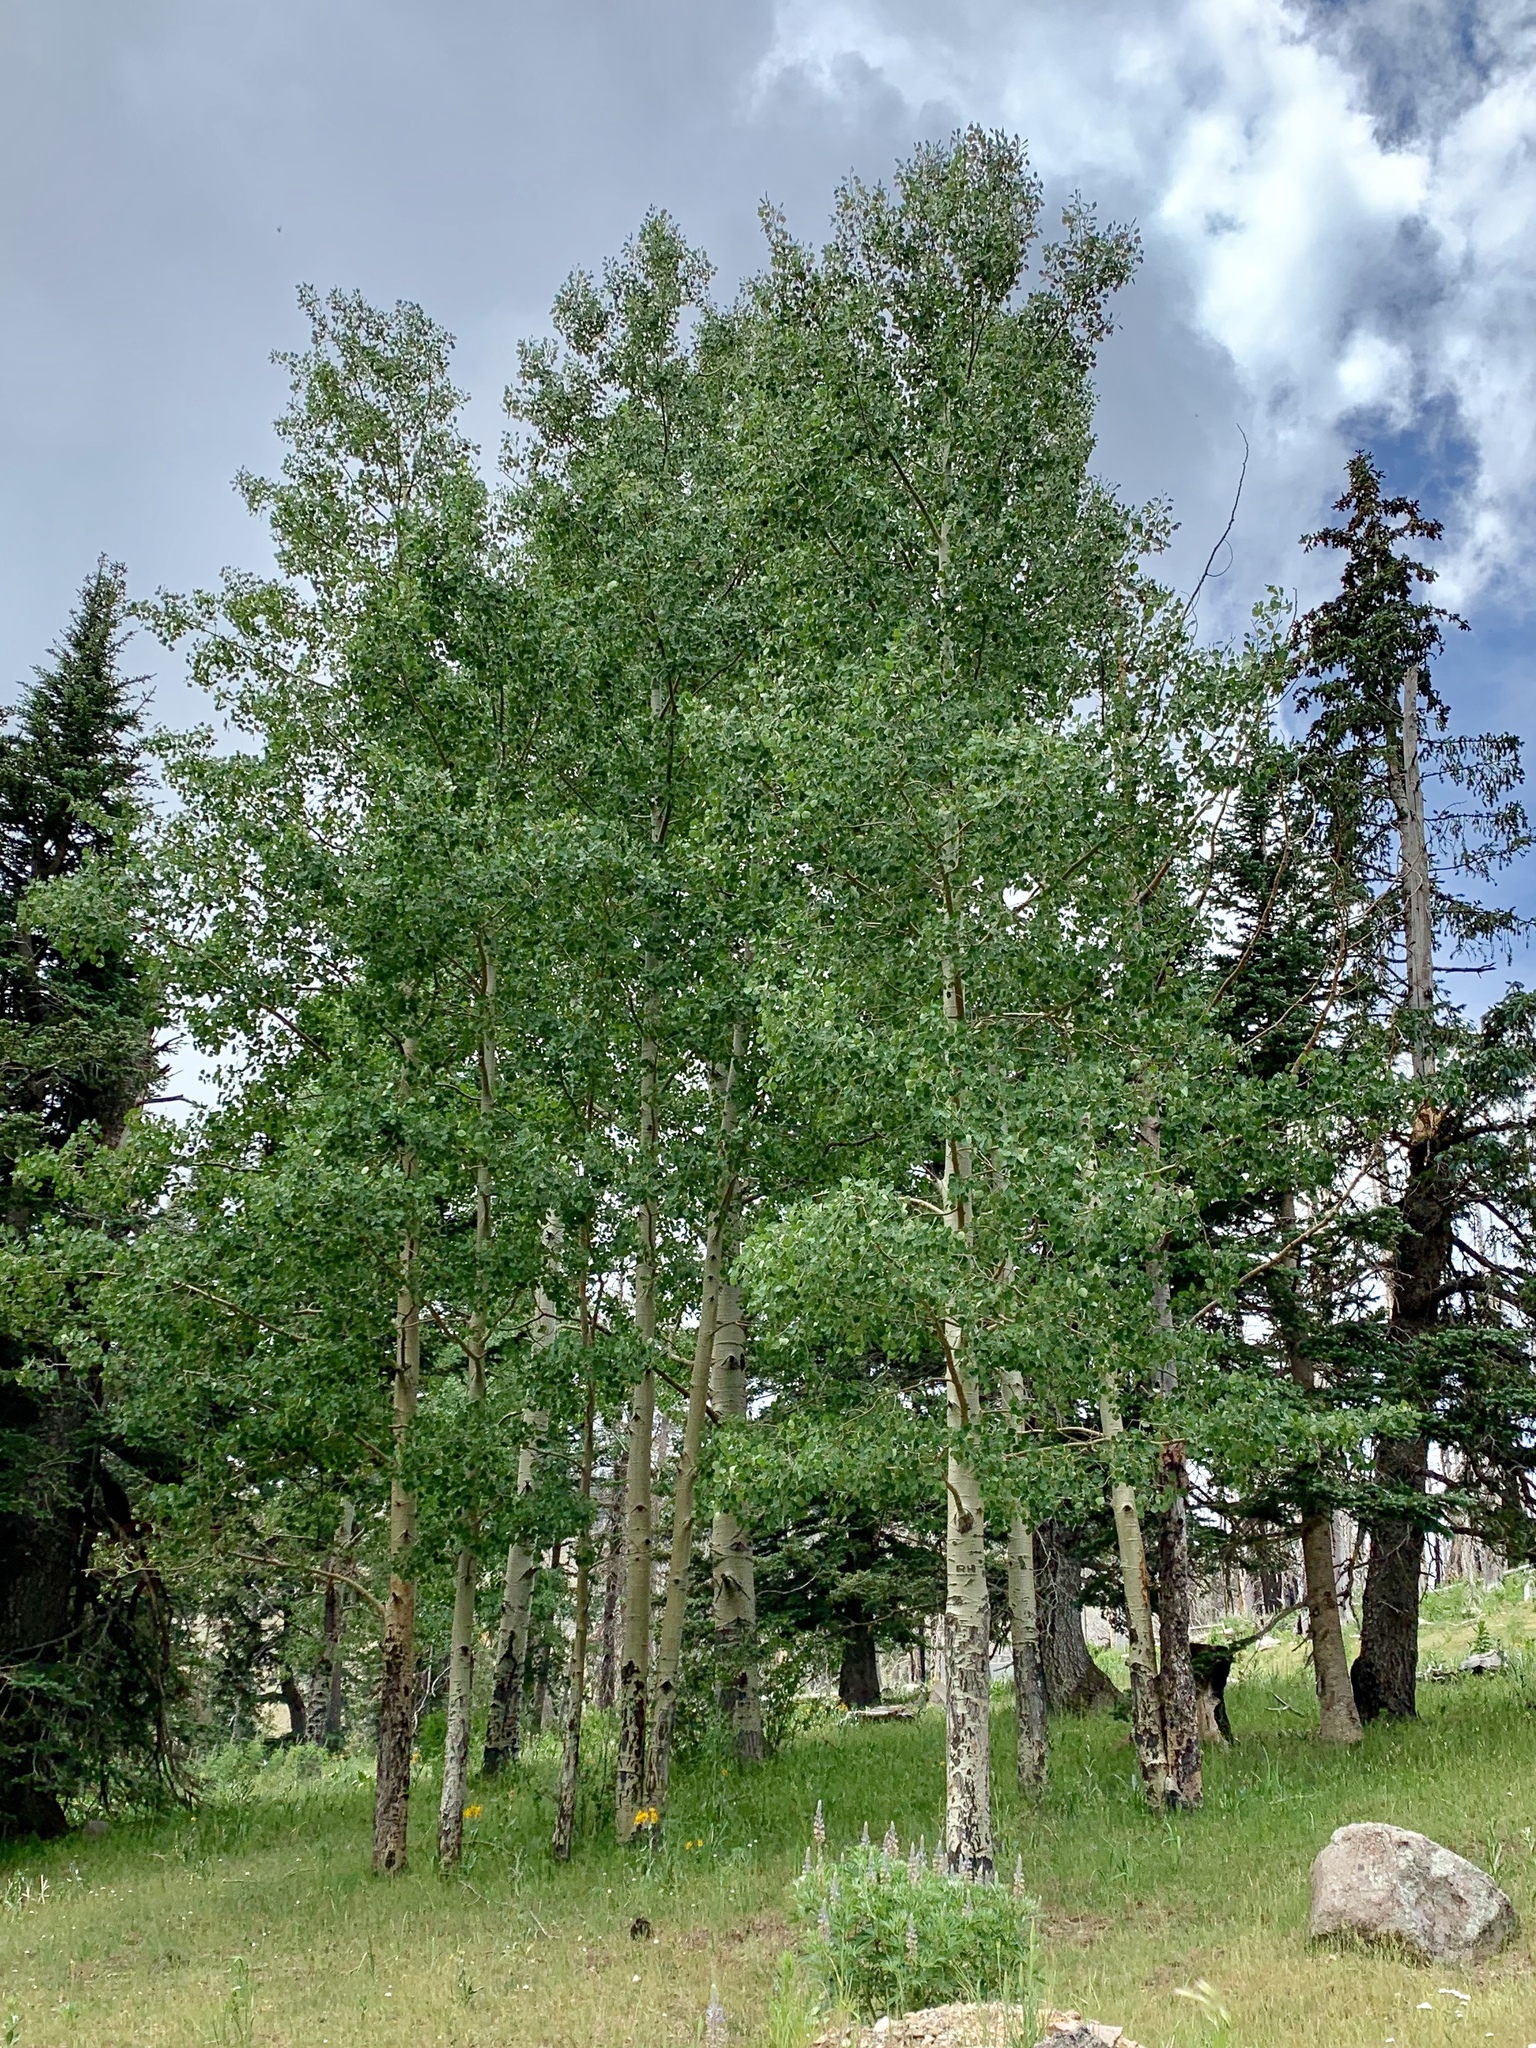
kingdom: Plantae
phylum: Tracheophyta
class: Magnoliopsida
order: Malpighiales
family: Salicaceae
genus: Populus
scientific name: Populus tremuloides
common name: Quaking aspen
